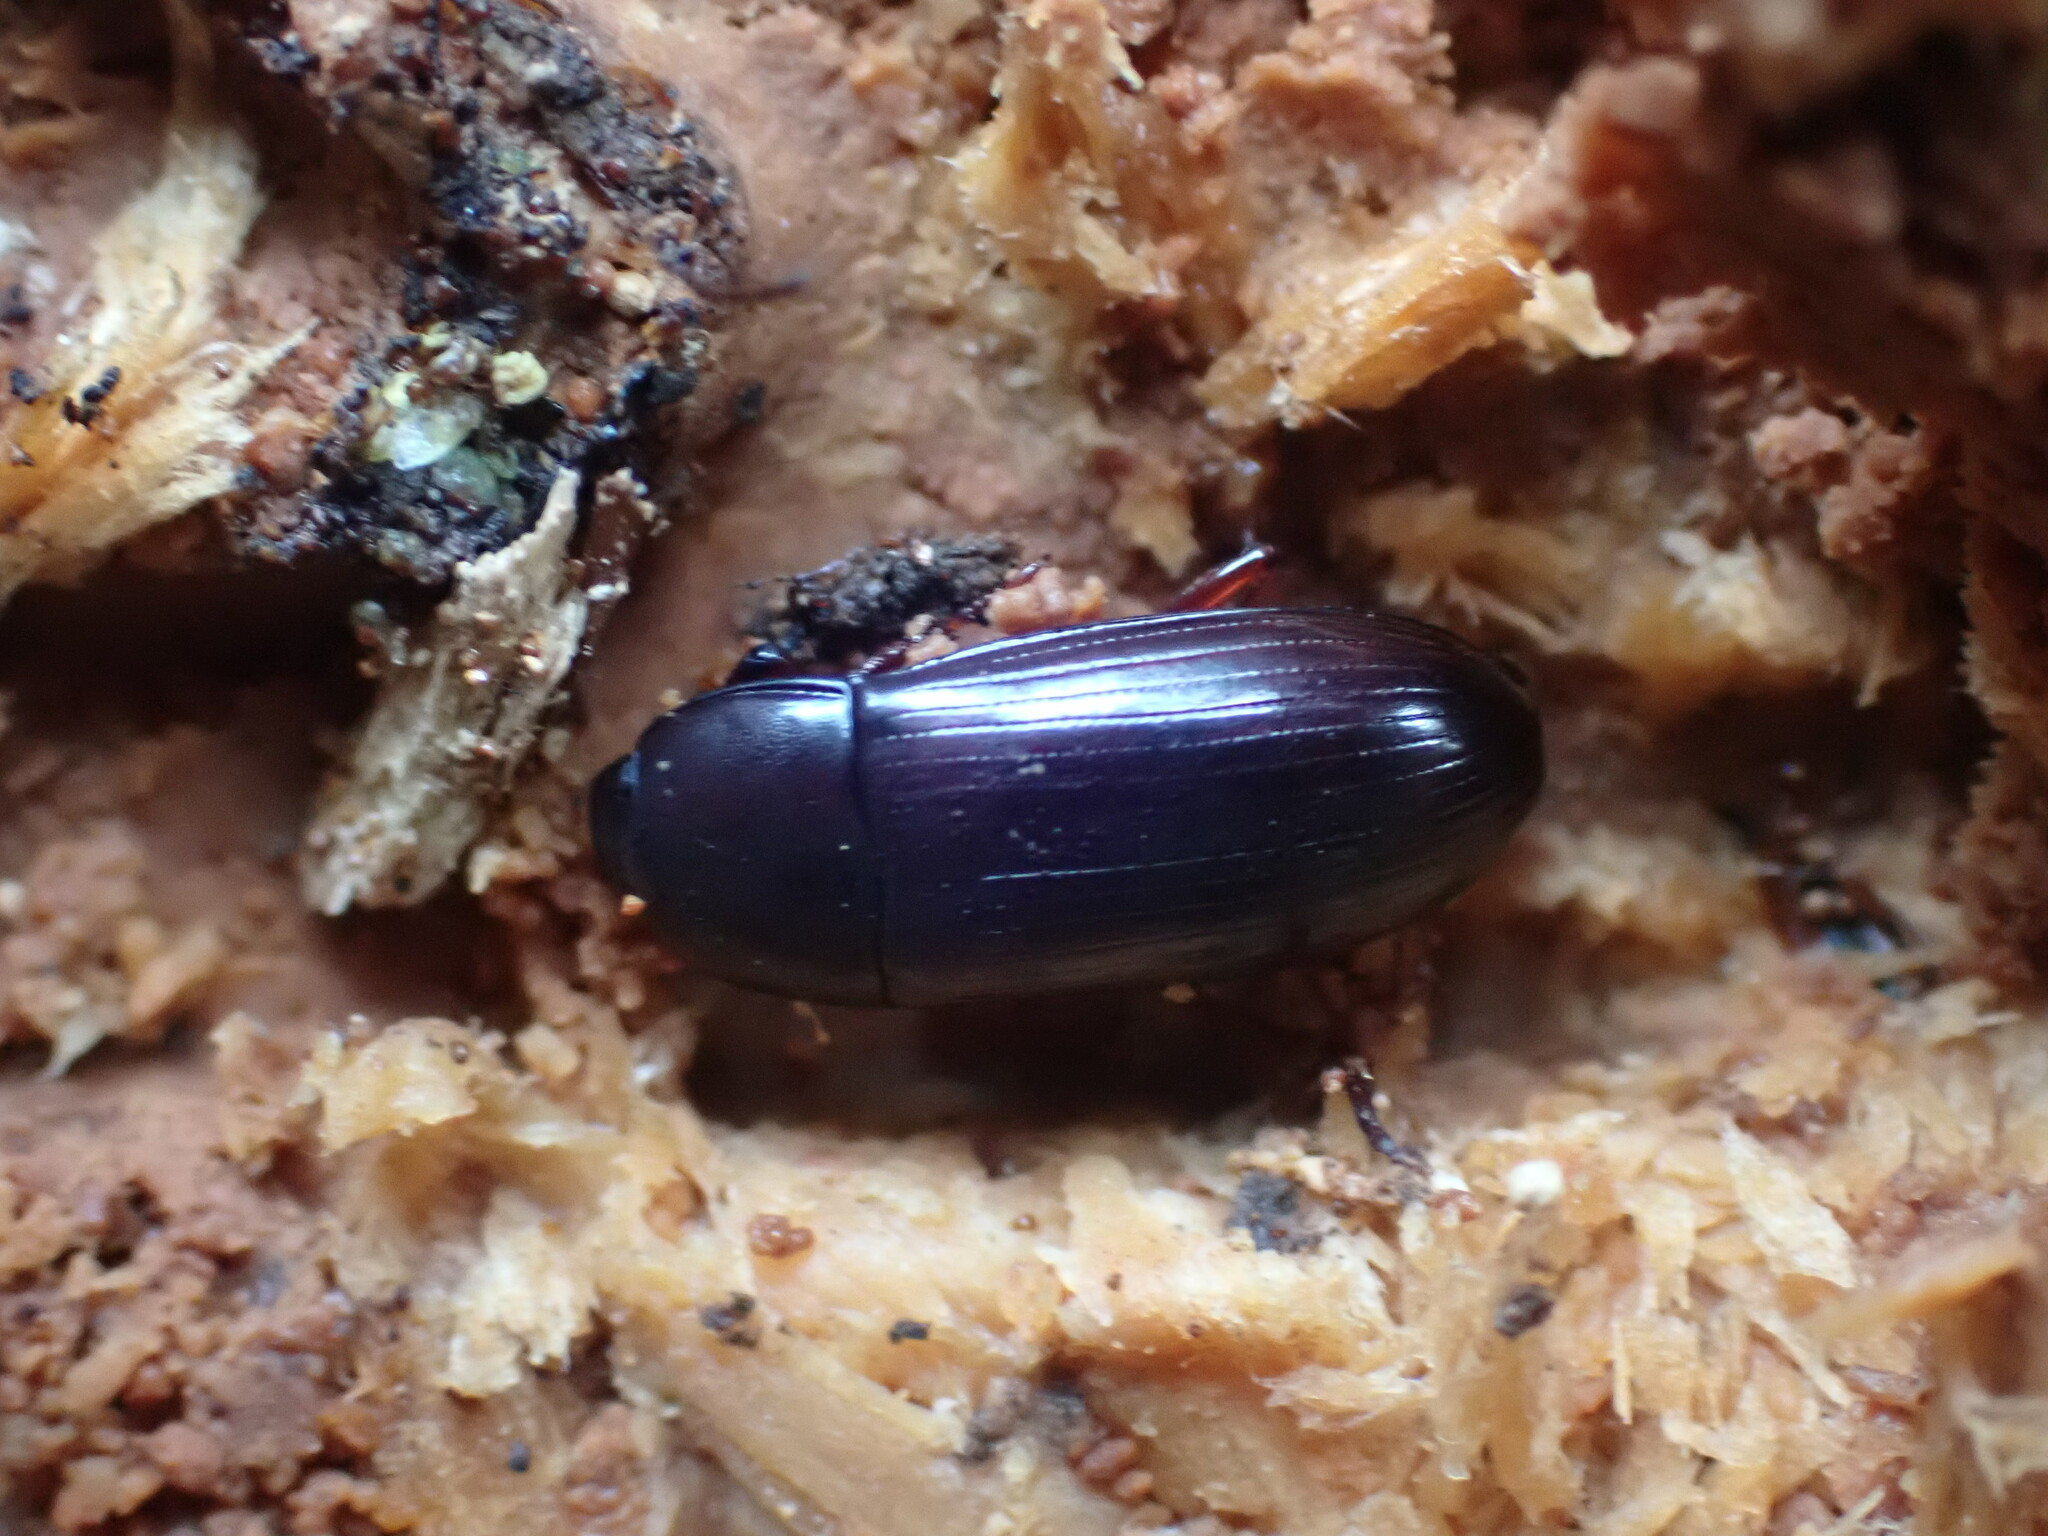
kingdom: Animalia
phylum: Arthropoda
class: Insecta
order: Coleoptera
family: Tenebrionidae
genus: Uloma
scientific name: Uloma tenebrionoides
